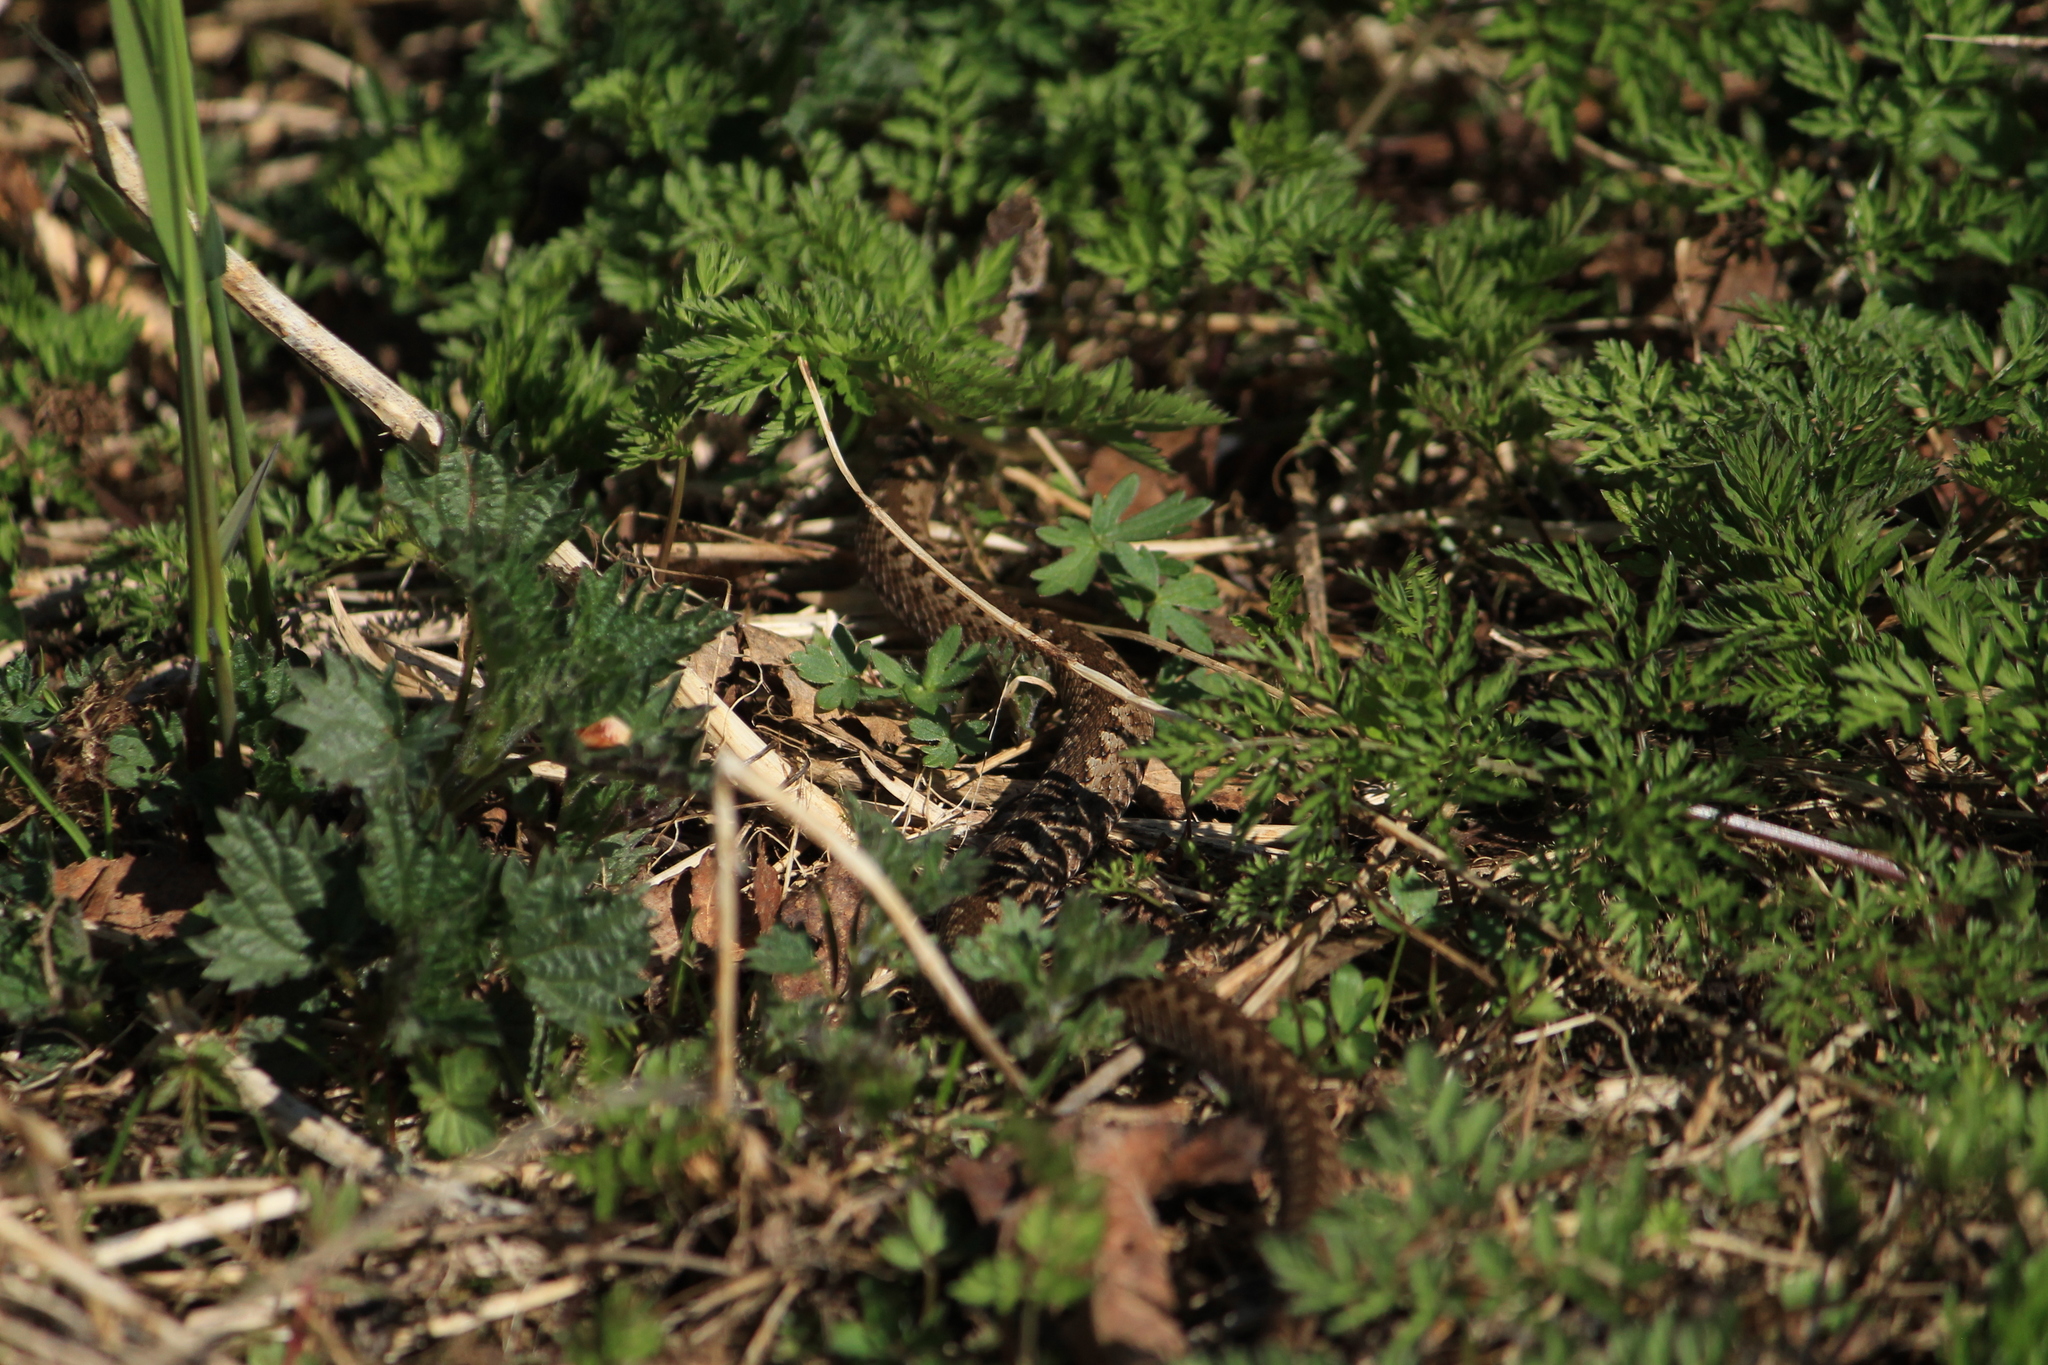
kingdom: Animalia
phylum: Chordata
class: Squamata
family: Viperidae
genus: Vipera
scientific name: Vipera berus
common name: Adder
